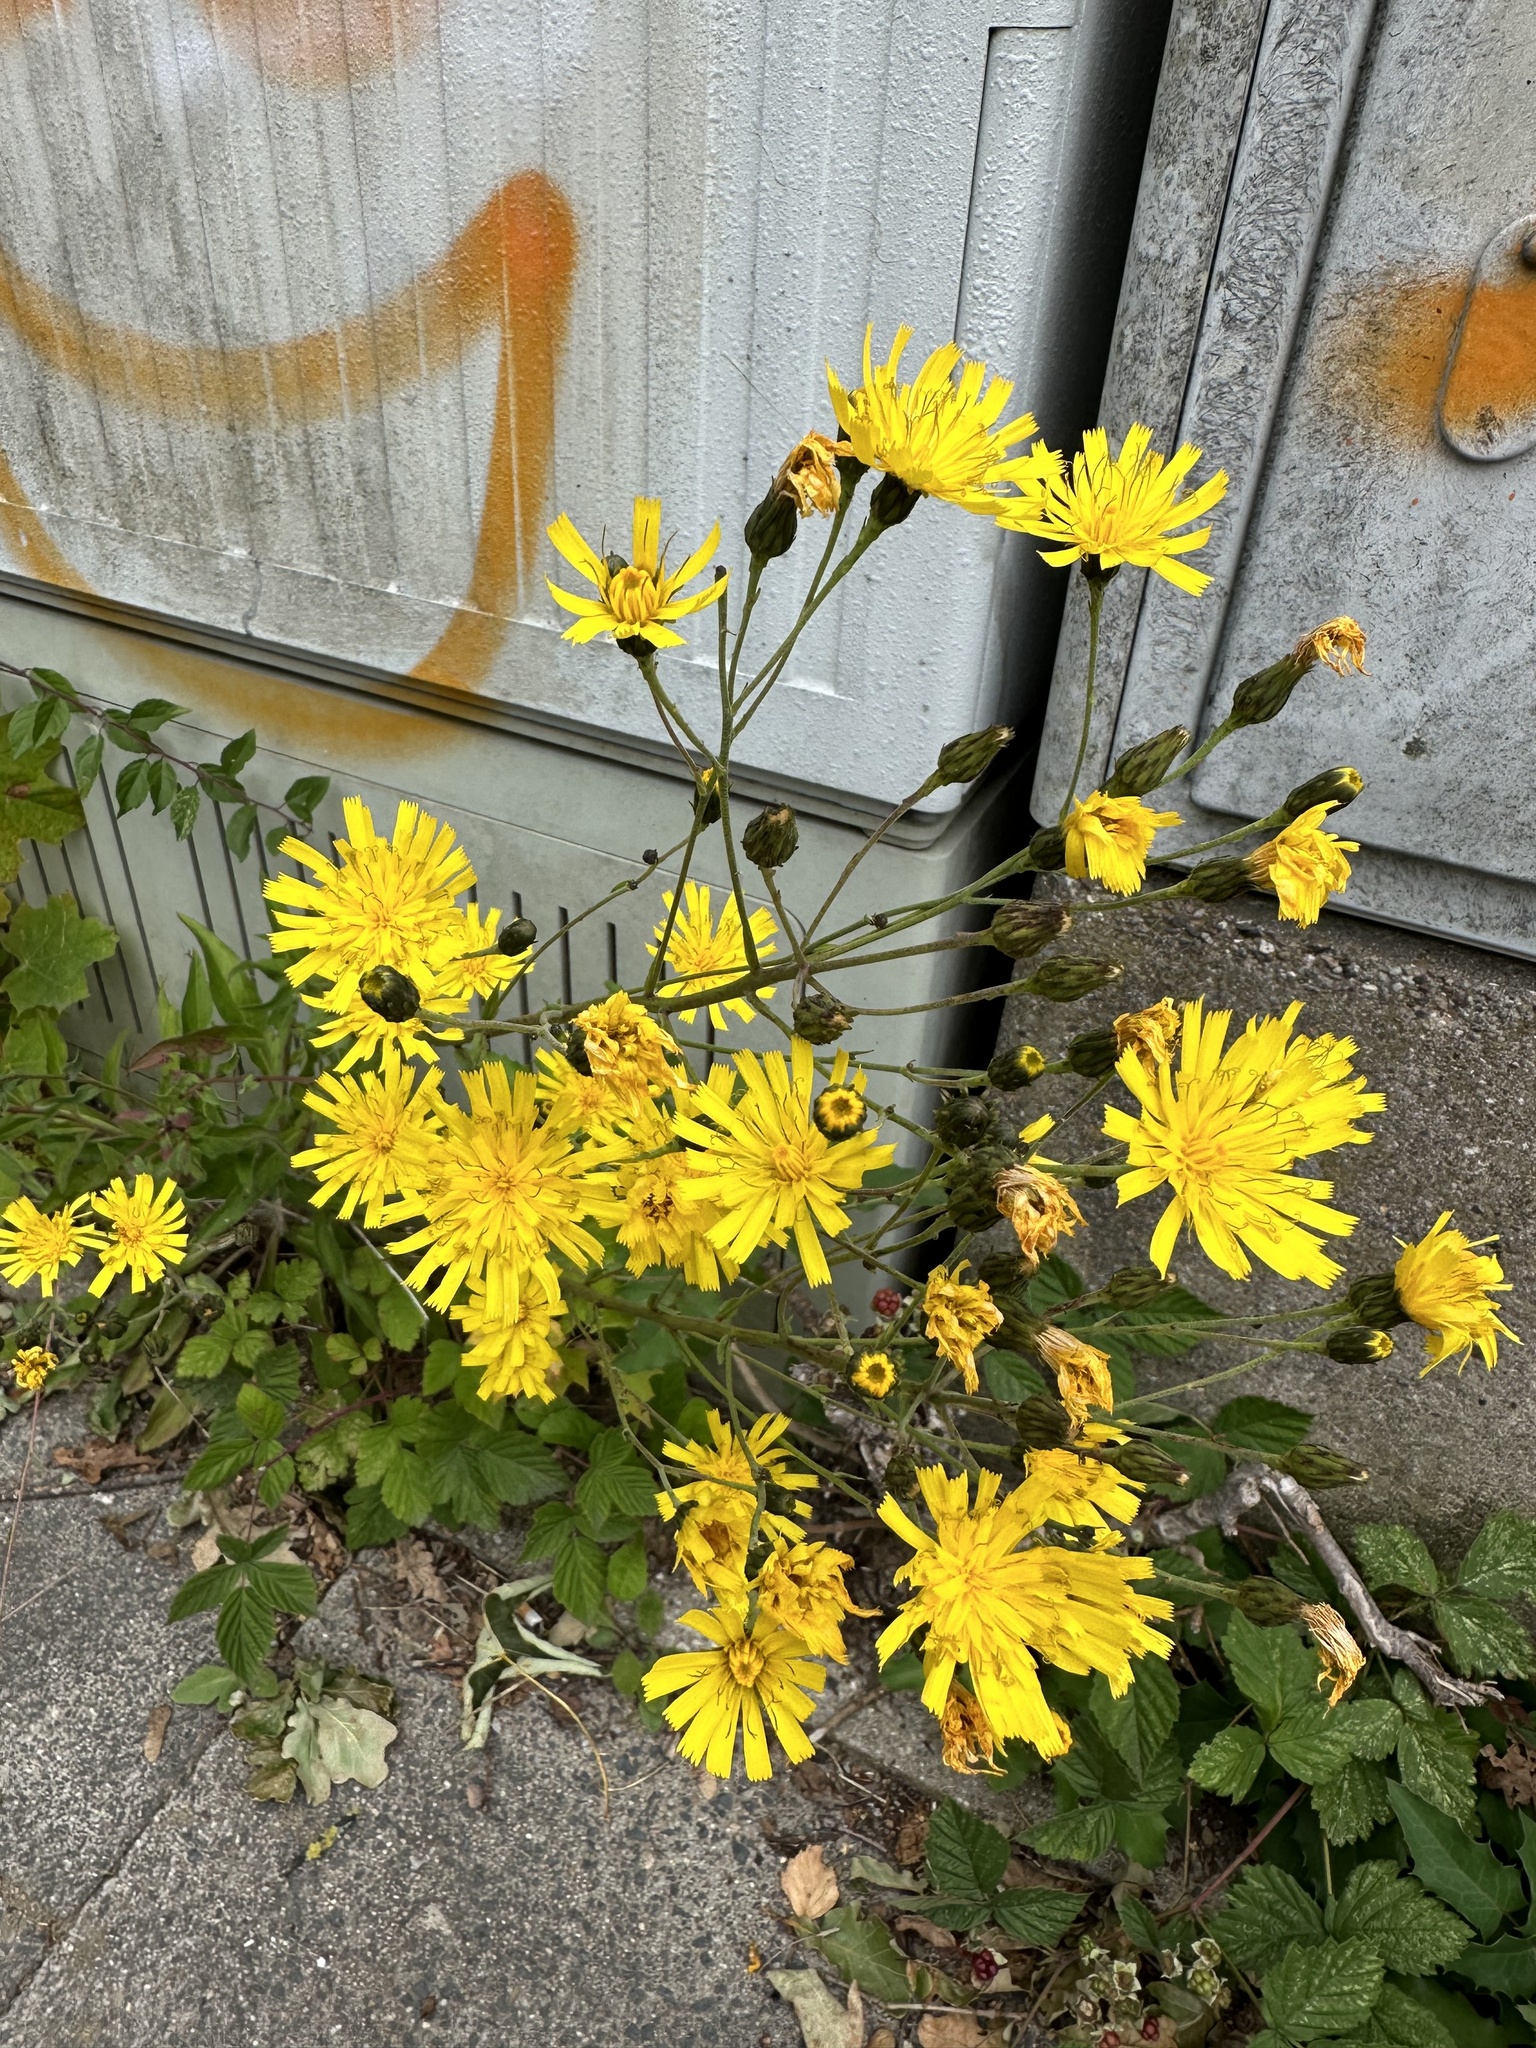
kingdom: Plantae
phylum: Tracheophyta
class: Magnoliopsida
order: Asterales
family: Asteraceae
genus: Hieracium
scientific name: Hieracium umbellatum
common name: Northern hawkweed
